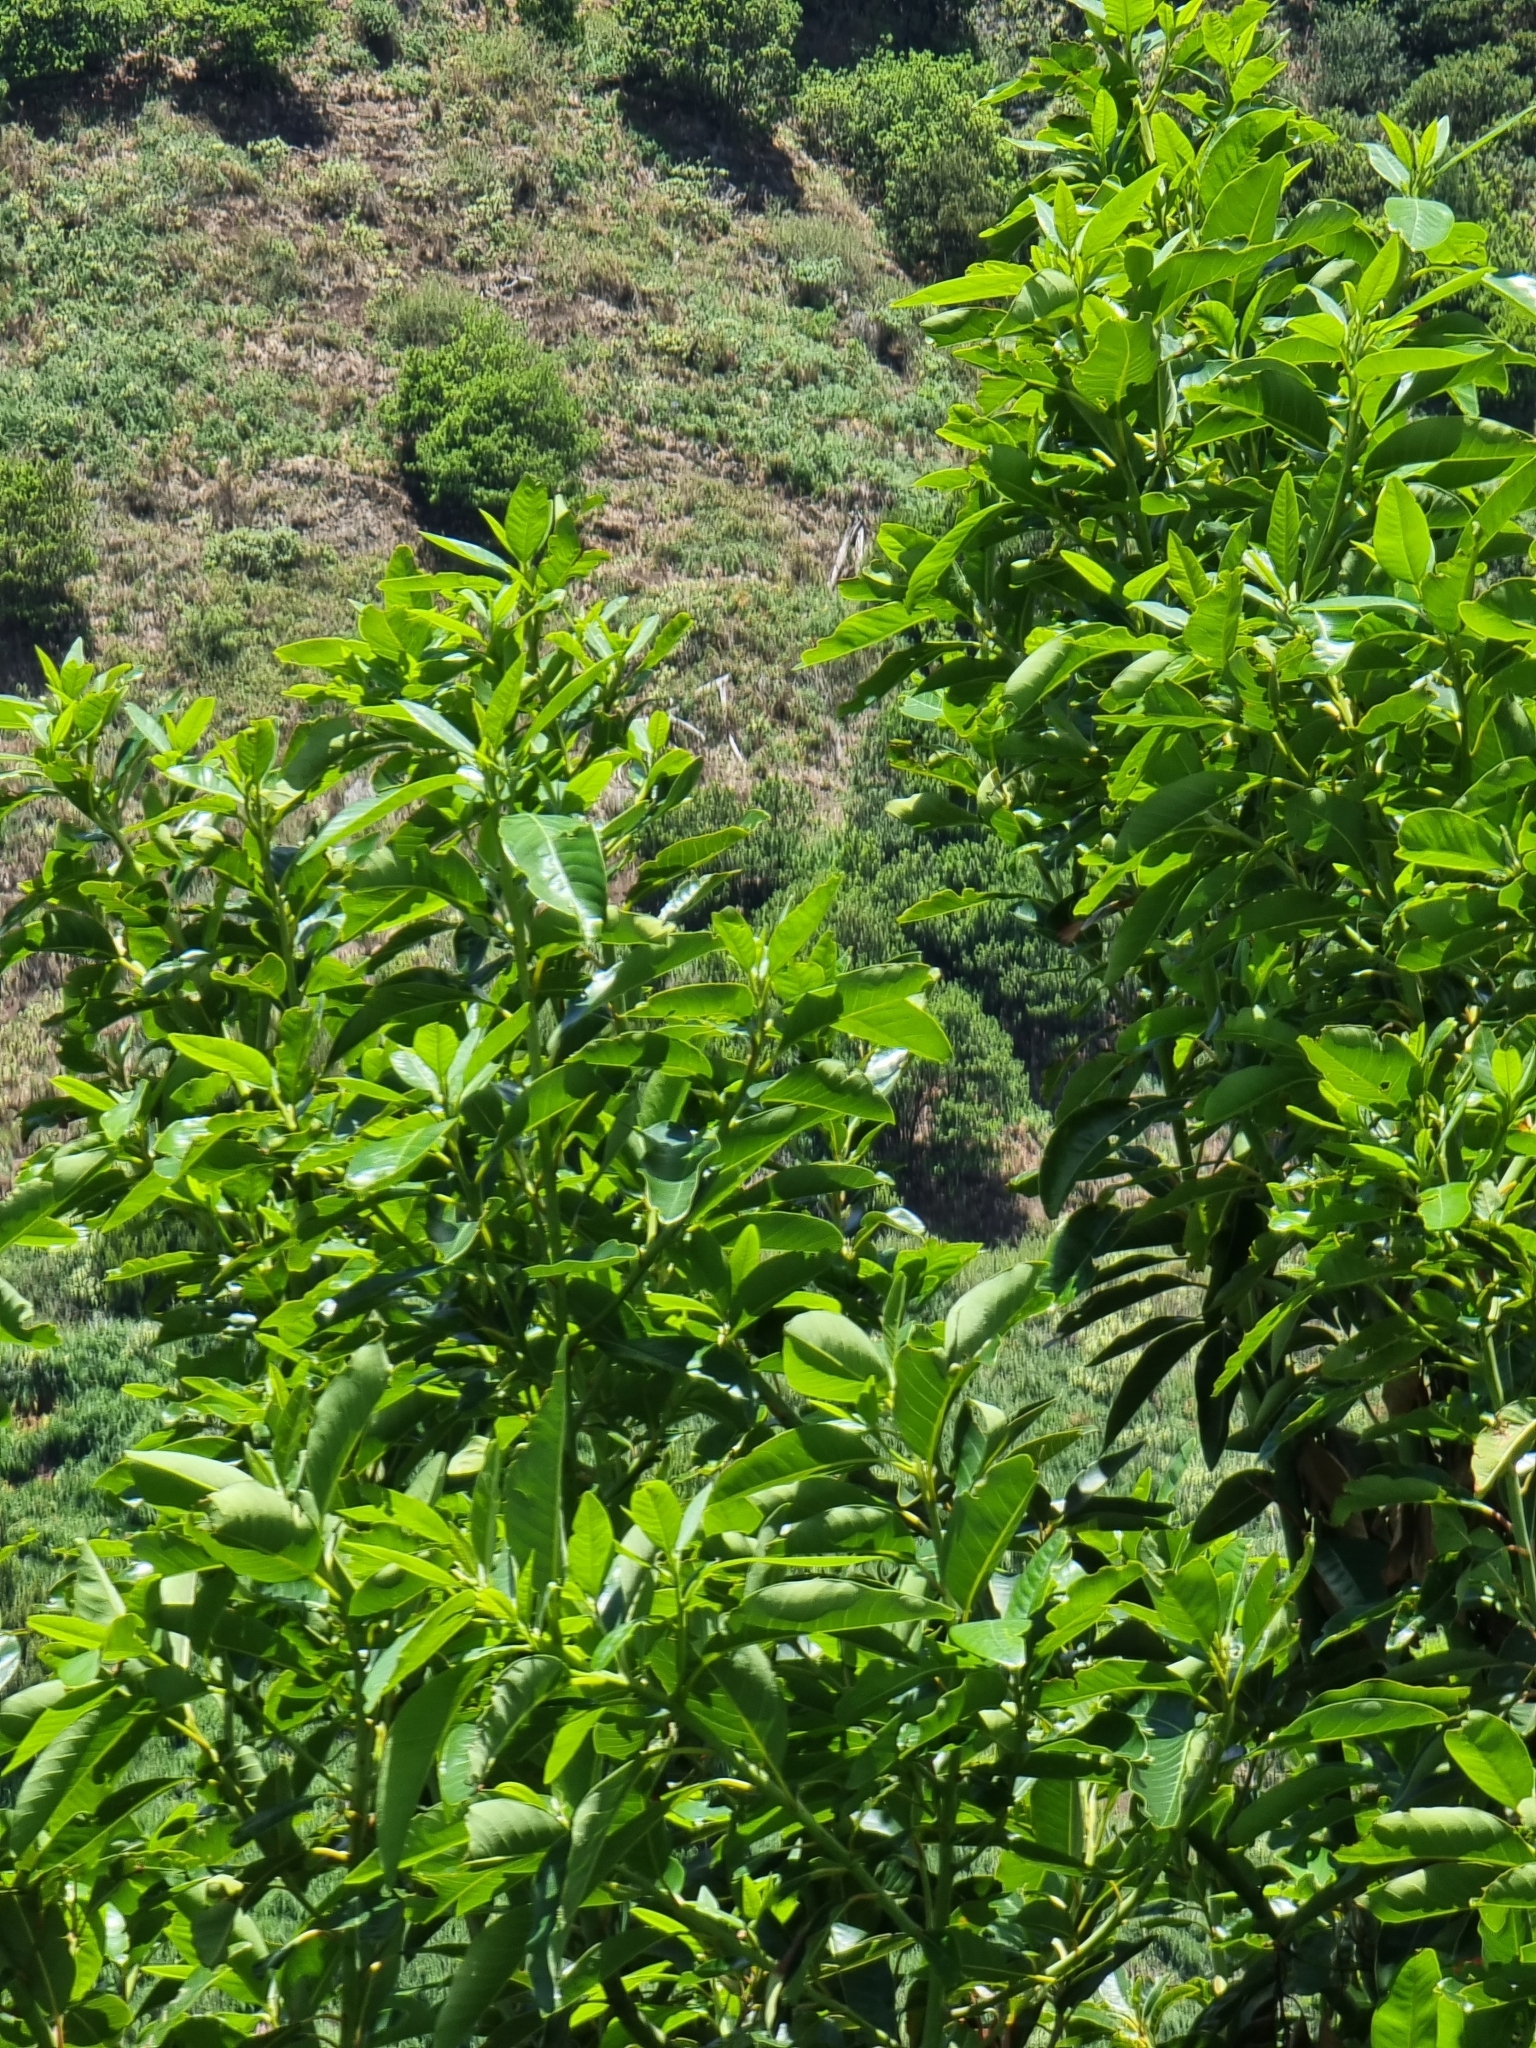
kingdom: Plantae
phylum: Tracheophyta
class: Magnoliopsida
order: Laurales
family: Lauraceae
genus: Persea
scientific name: Persea indica
